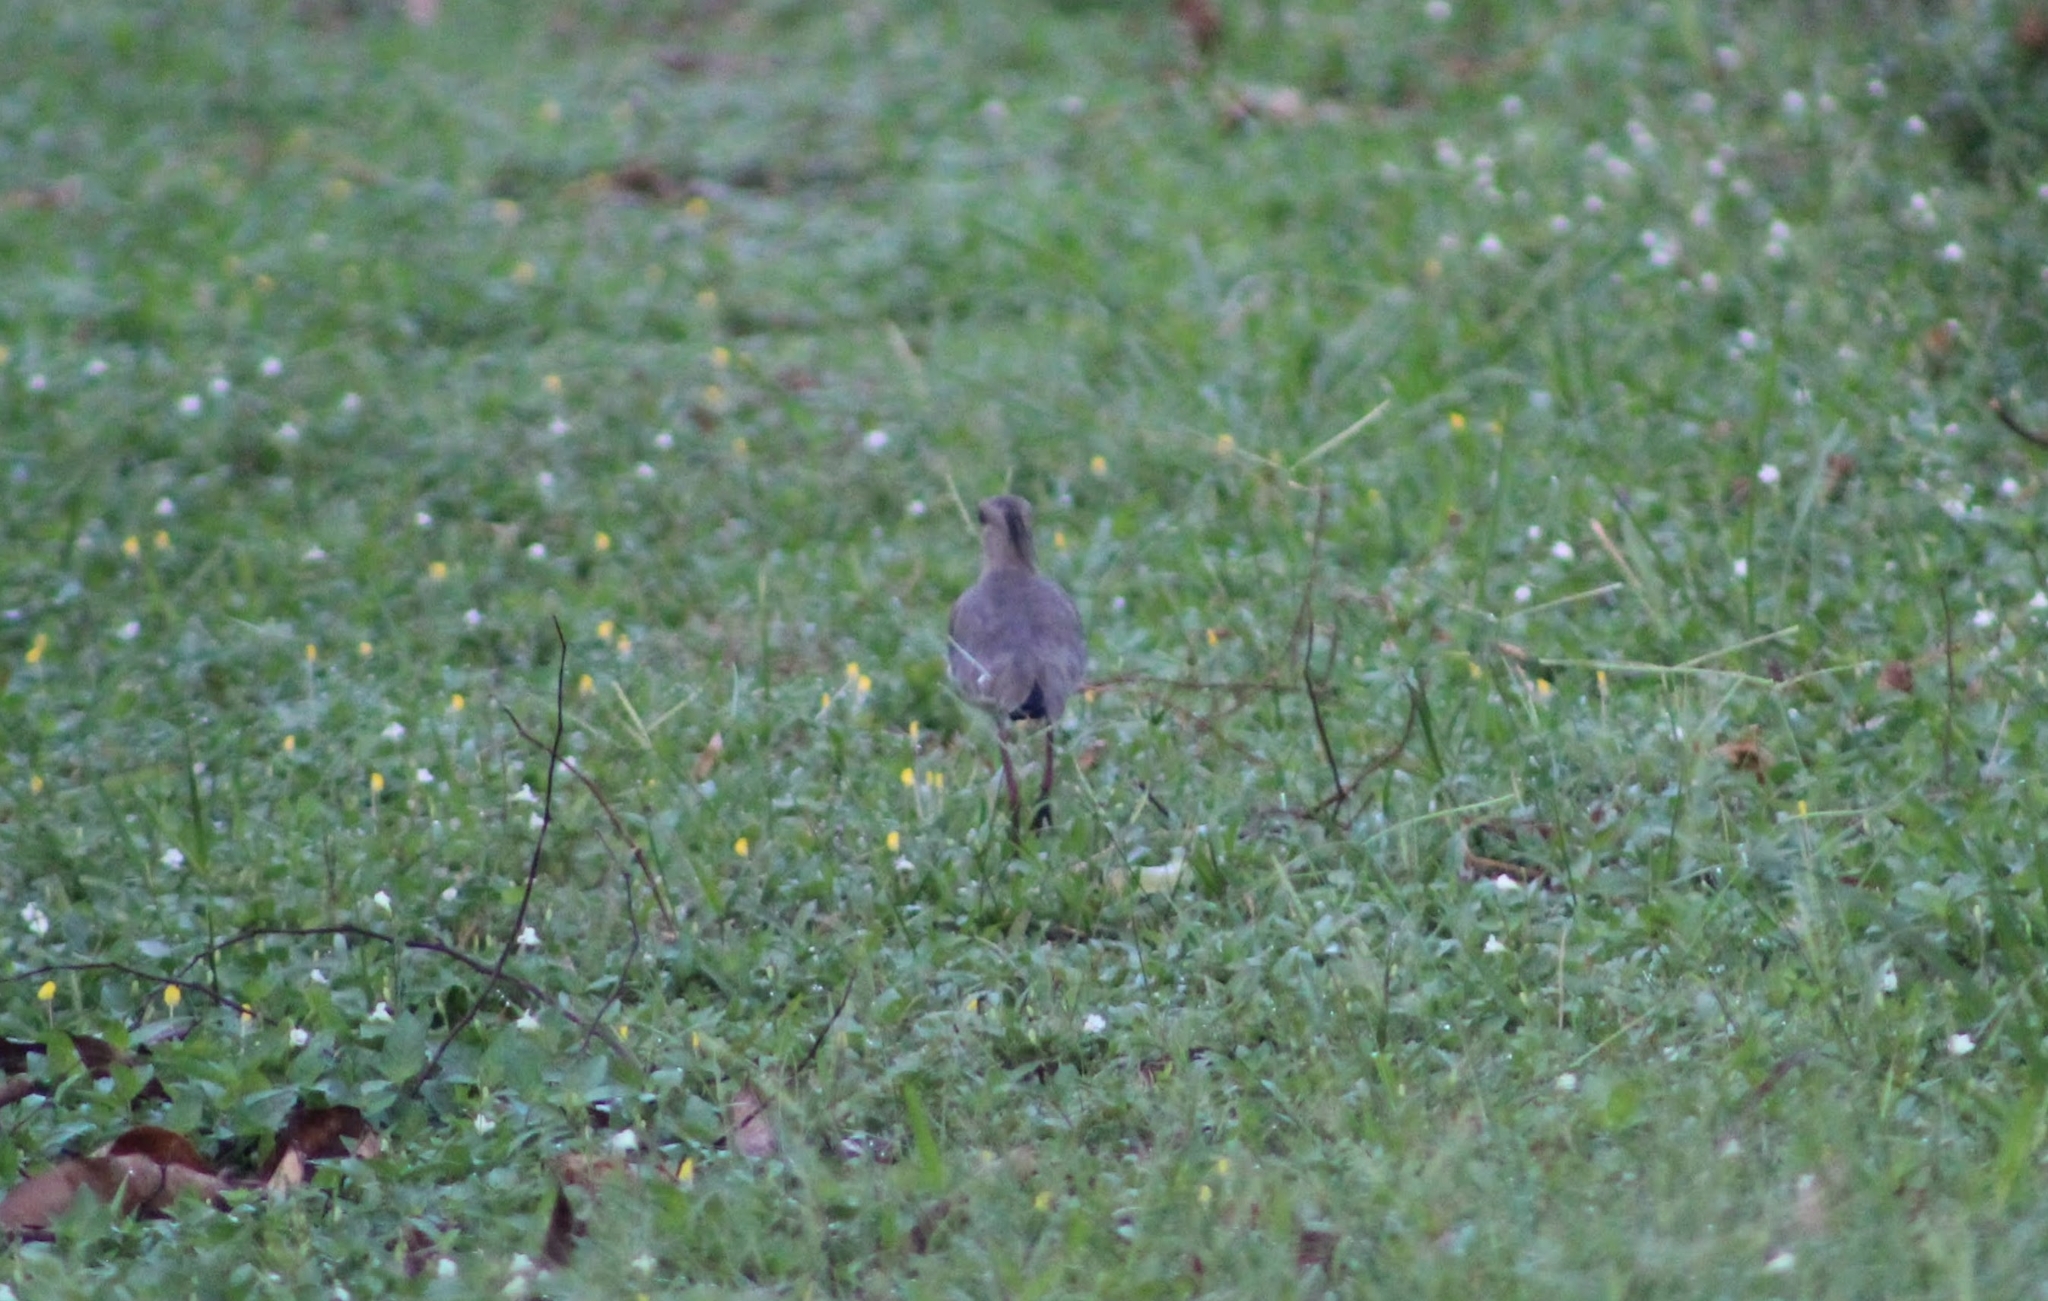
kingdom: Animalia
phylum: Chordata
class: Aves
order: Charadriiformes
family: Charadriidae
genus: Vanellus
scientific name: Vanellus chilensis
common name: Southern lapwing
